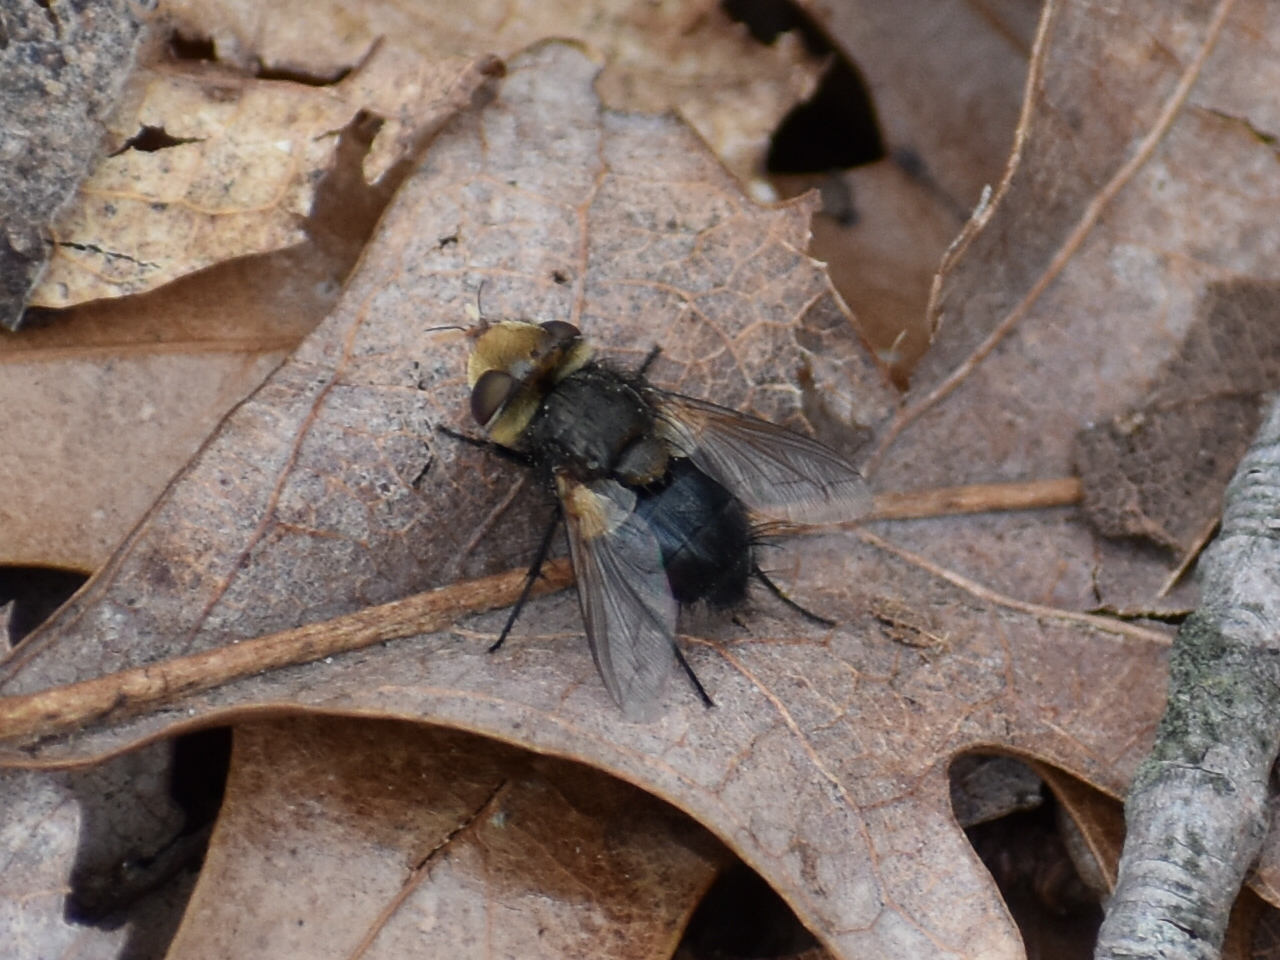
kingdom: Animalia
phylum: Arthropoda
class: Insecta
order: Diptera
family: Tachinidae
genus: Gonia
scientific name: Gonia sagax
